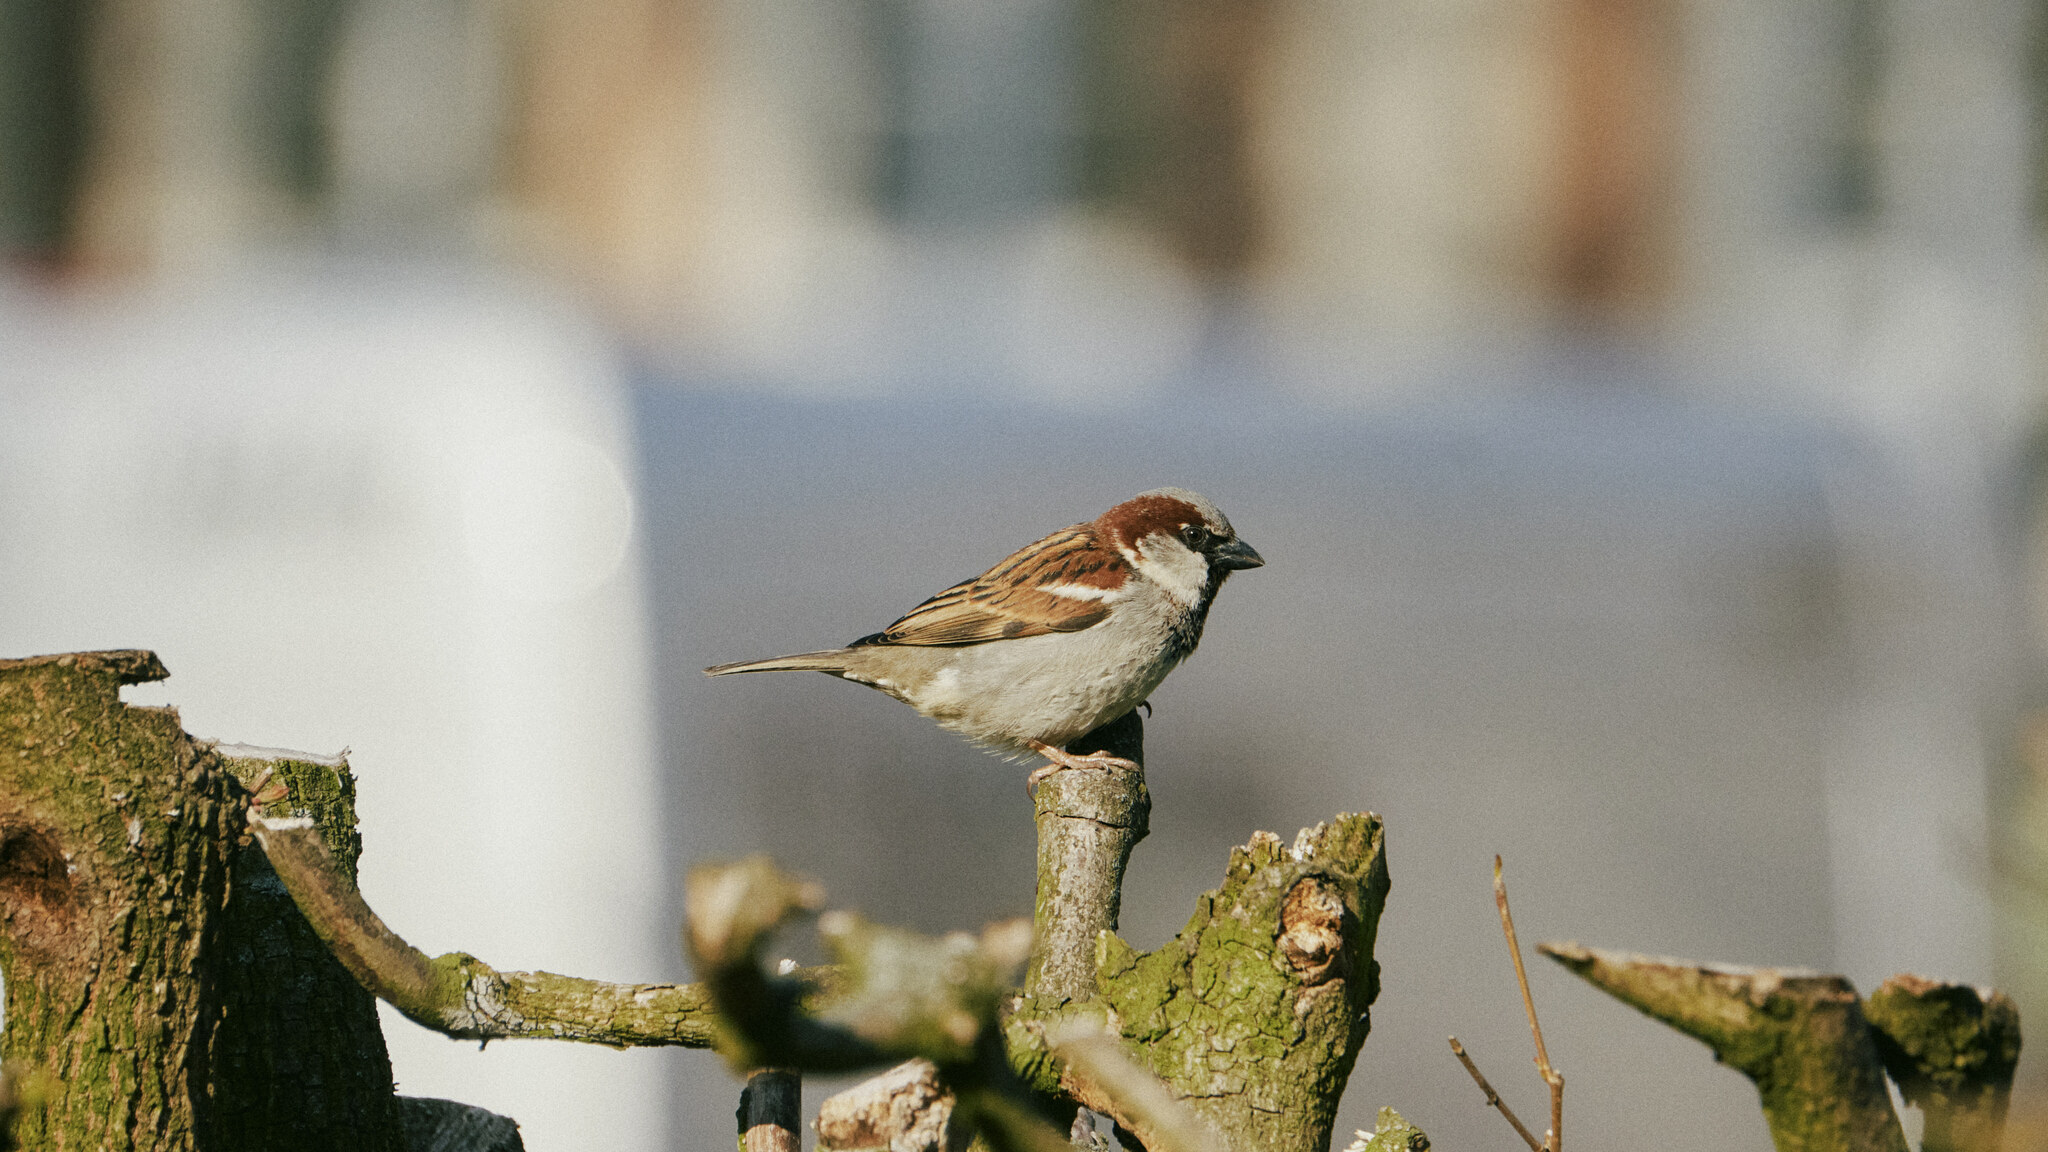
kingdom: Animalia
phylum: Chordata
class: Aves
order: Passeriformes
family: Passeridae
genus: Passer
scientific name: Passer domesticus
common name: House sparrow
